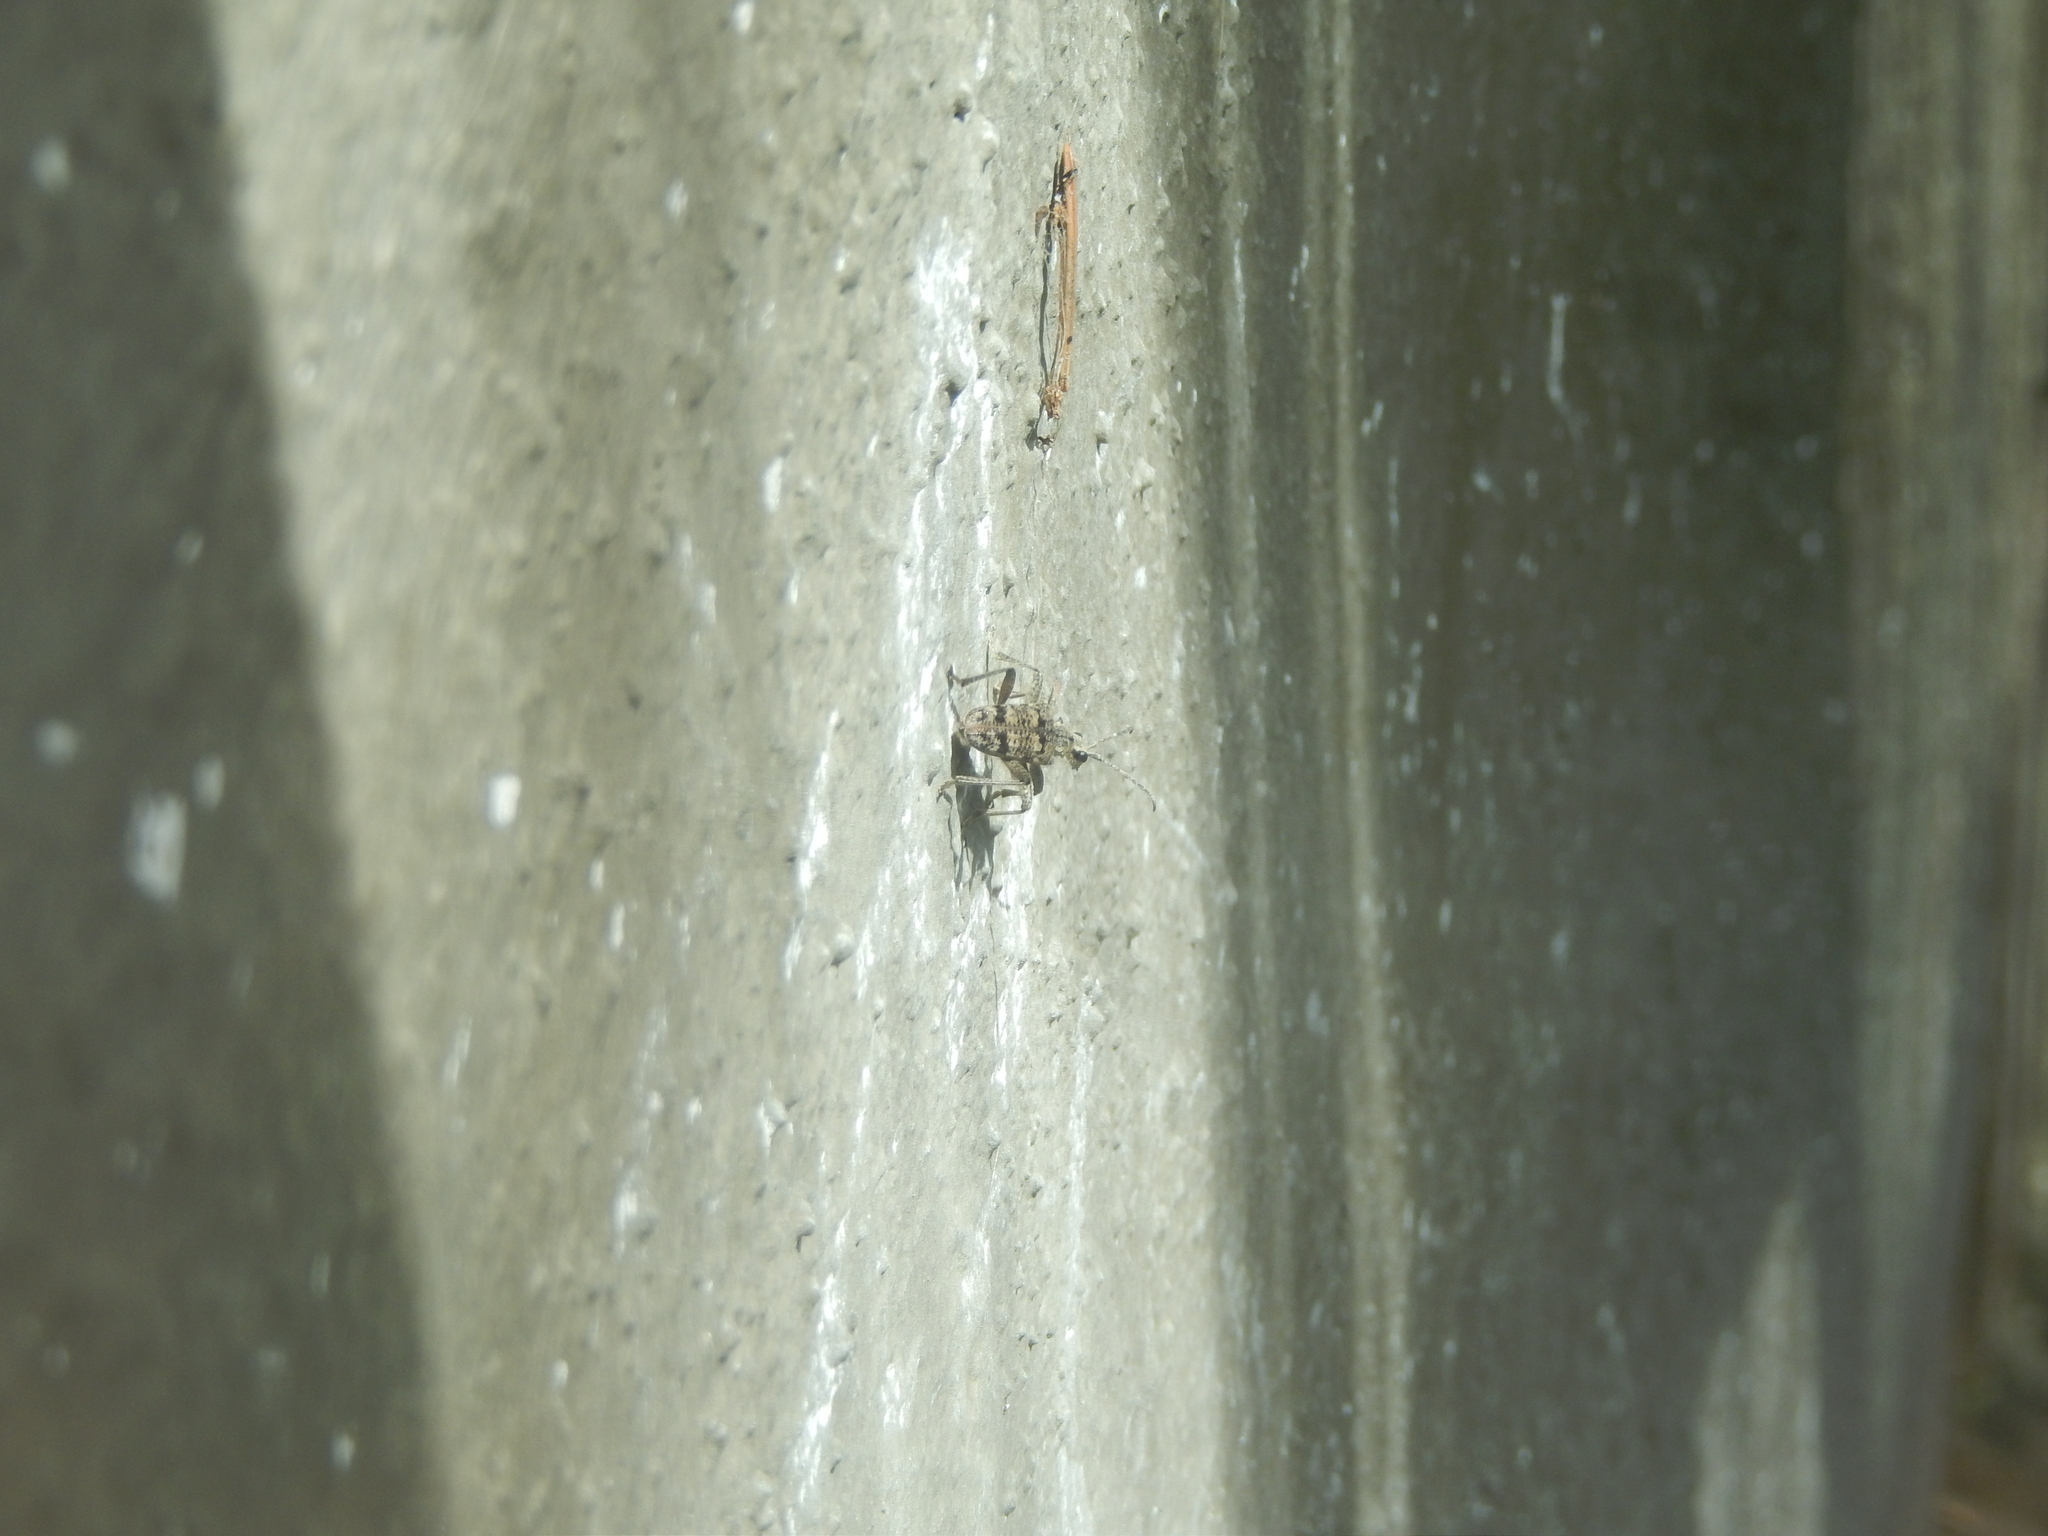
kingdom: Animalia
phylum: Arthropoda
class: Insecta
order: Coleoptera
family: Cerambycidae
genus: Rhagium
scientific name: Rhagium inquisitor
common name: Ribbed pine borer
